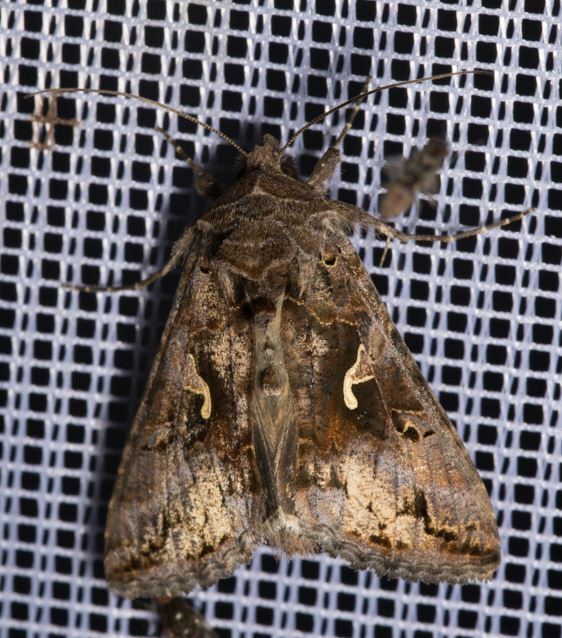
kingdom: Animalia
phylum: Arthropoda
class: Insecta
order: Lepidoptera
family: Noctuidae
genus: Autographa
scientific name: Autographa gamma
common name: Silver y
